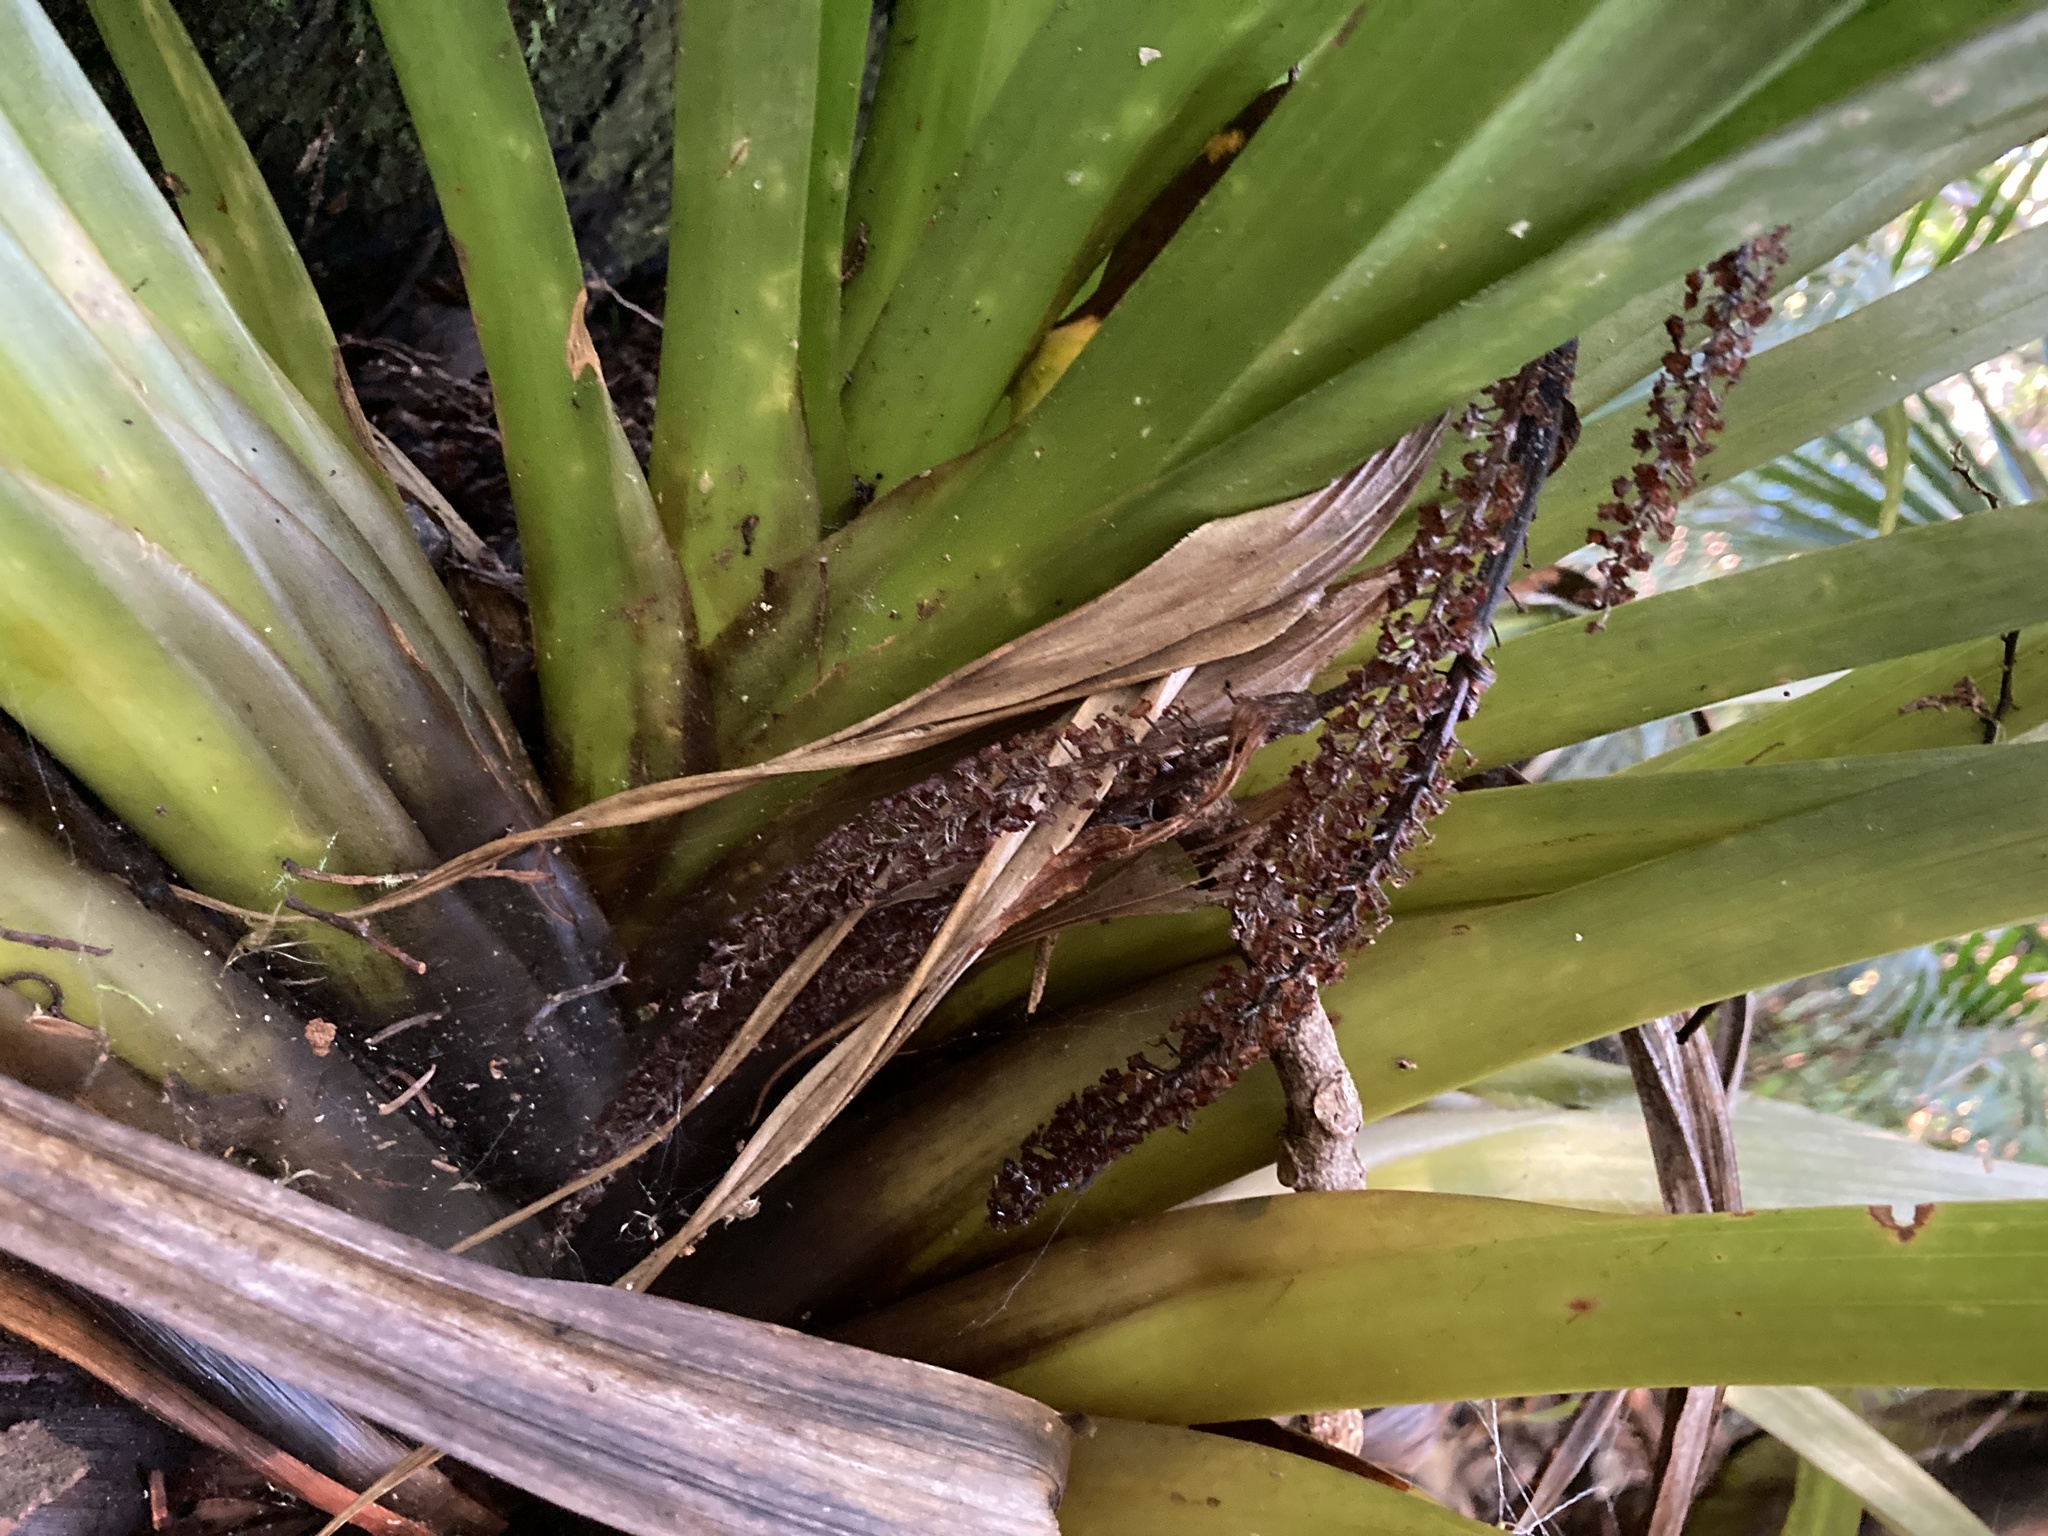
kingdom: Plantae
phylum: Tracheophyta
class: Liliopsida
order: Asparagales
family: Asteliaceae
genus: Astelia
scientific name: Astelia hastata
